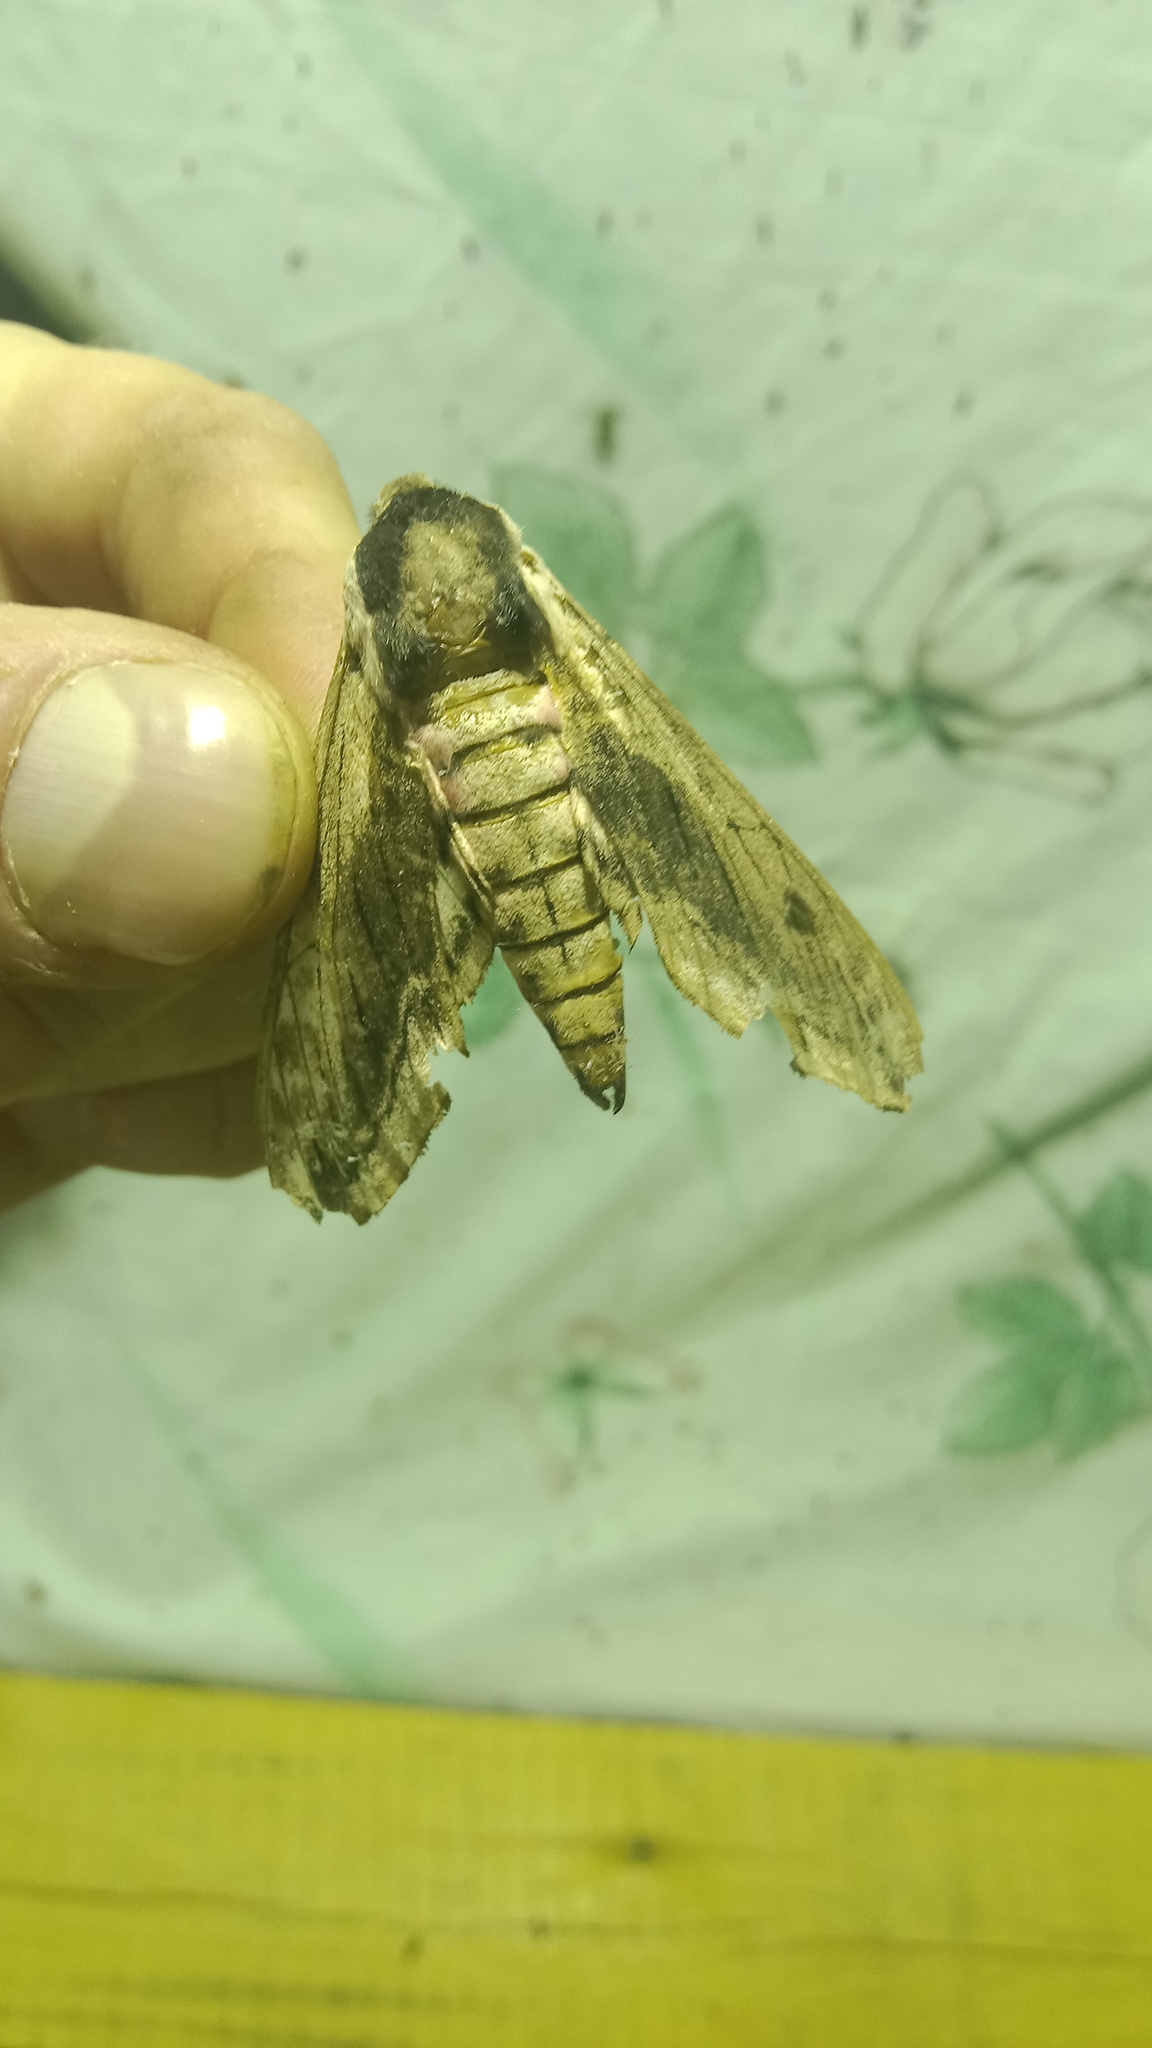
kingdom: Animalia
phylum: Arthropoda
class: Insecta
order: Lepidoptera
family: Sphingidae
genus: Sphinx
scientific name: Sphinx ligustri
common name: Privet hawk-moth
